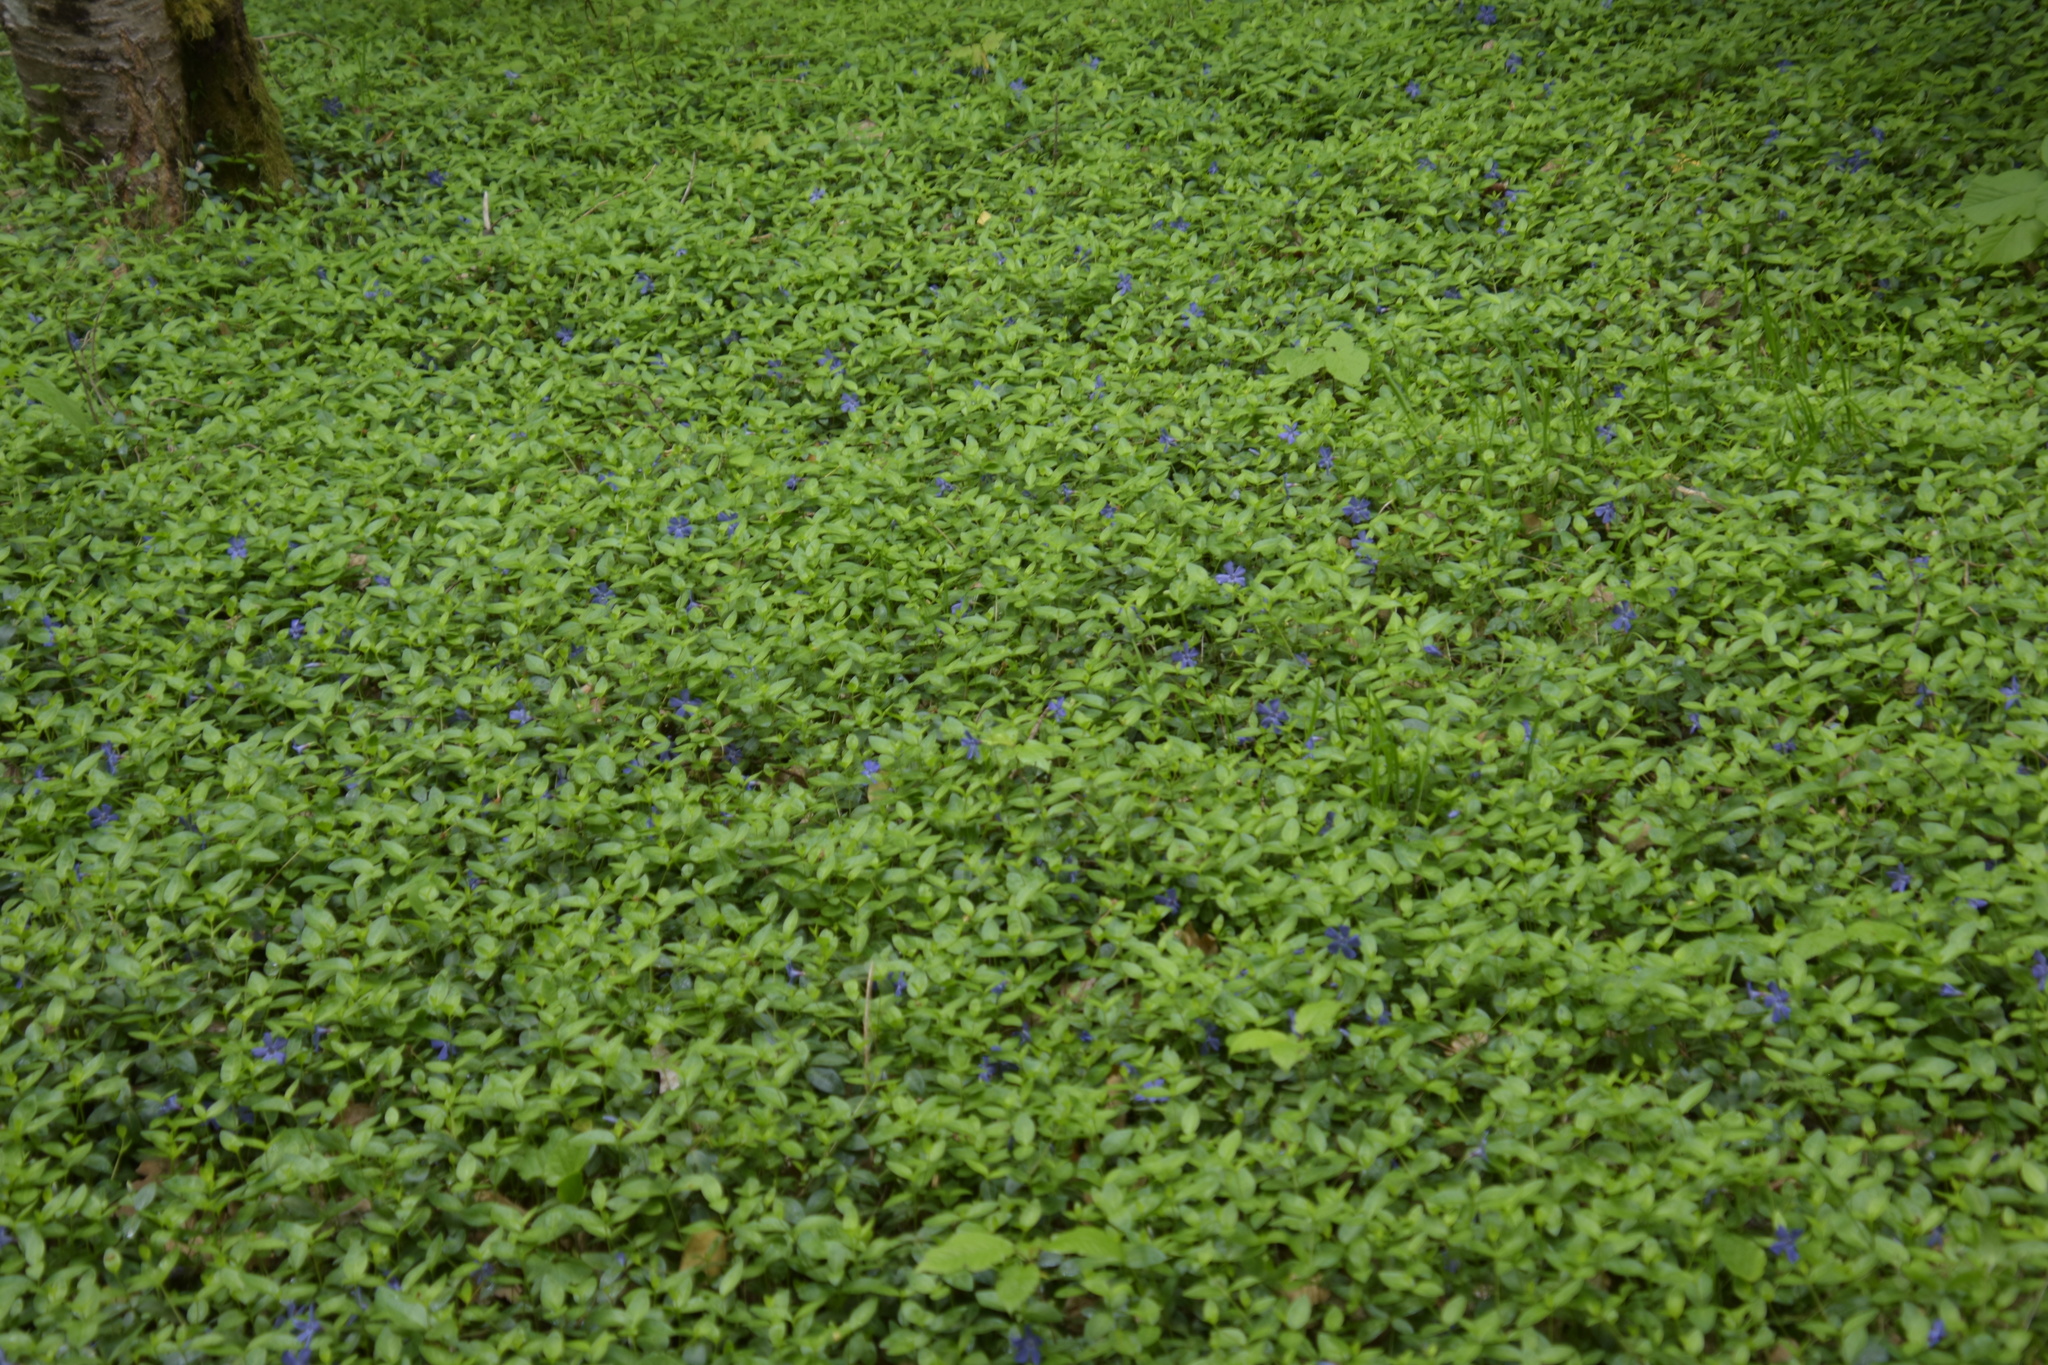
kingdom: Plantae
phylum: Tracheophyta
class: Magnoliopsida
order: Gentianales
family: Apocynaceae
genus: Vinca
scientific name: Vinca minor
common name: Lesser periwinkle
